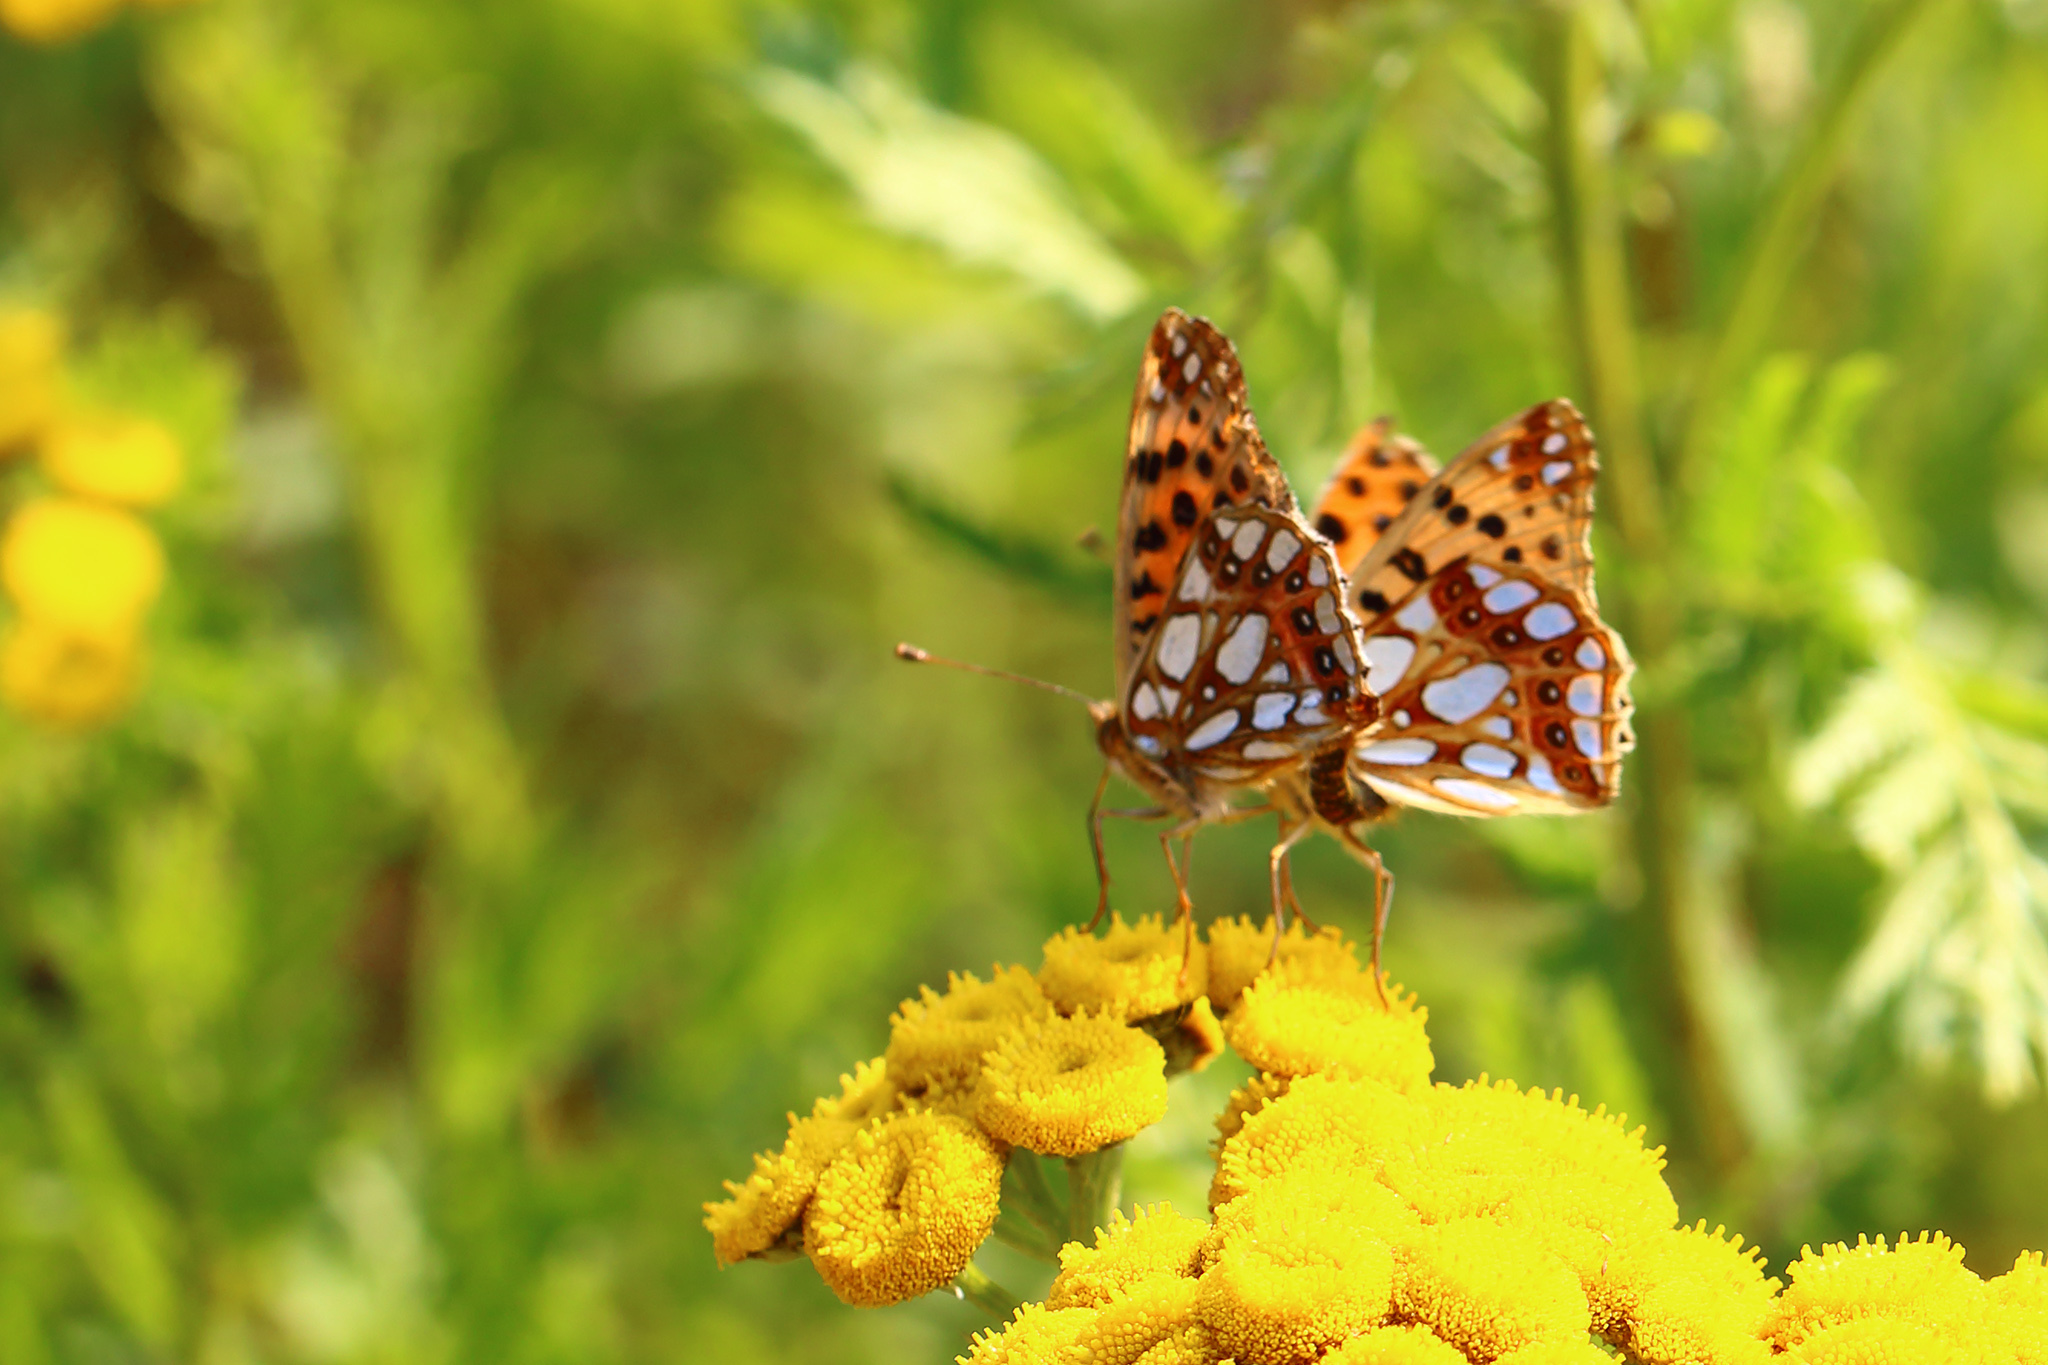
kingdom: Animalia
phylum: Arthropoda
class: Insecta
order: Lepidoptera
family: Nymphalidae
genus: Issoria
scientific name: Issoria lathonia
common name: Queen of spain fritillary
